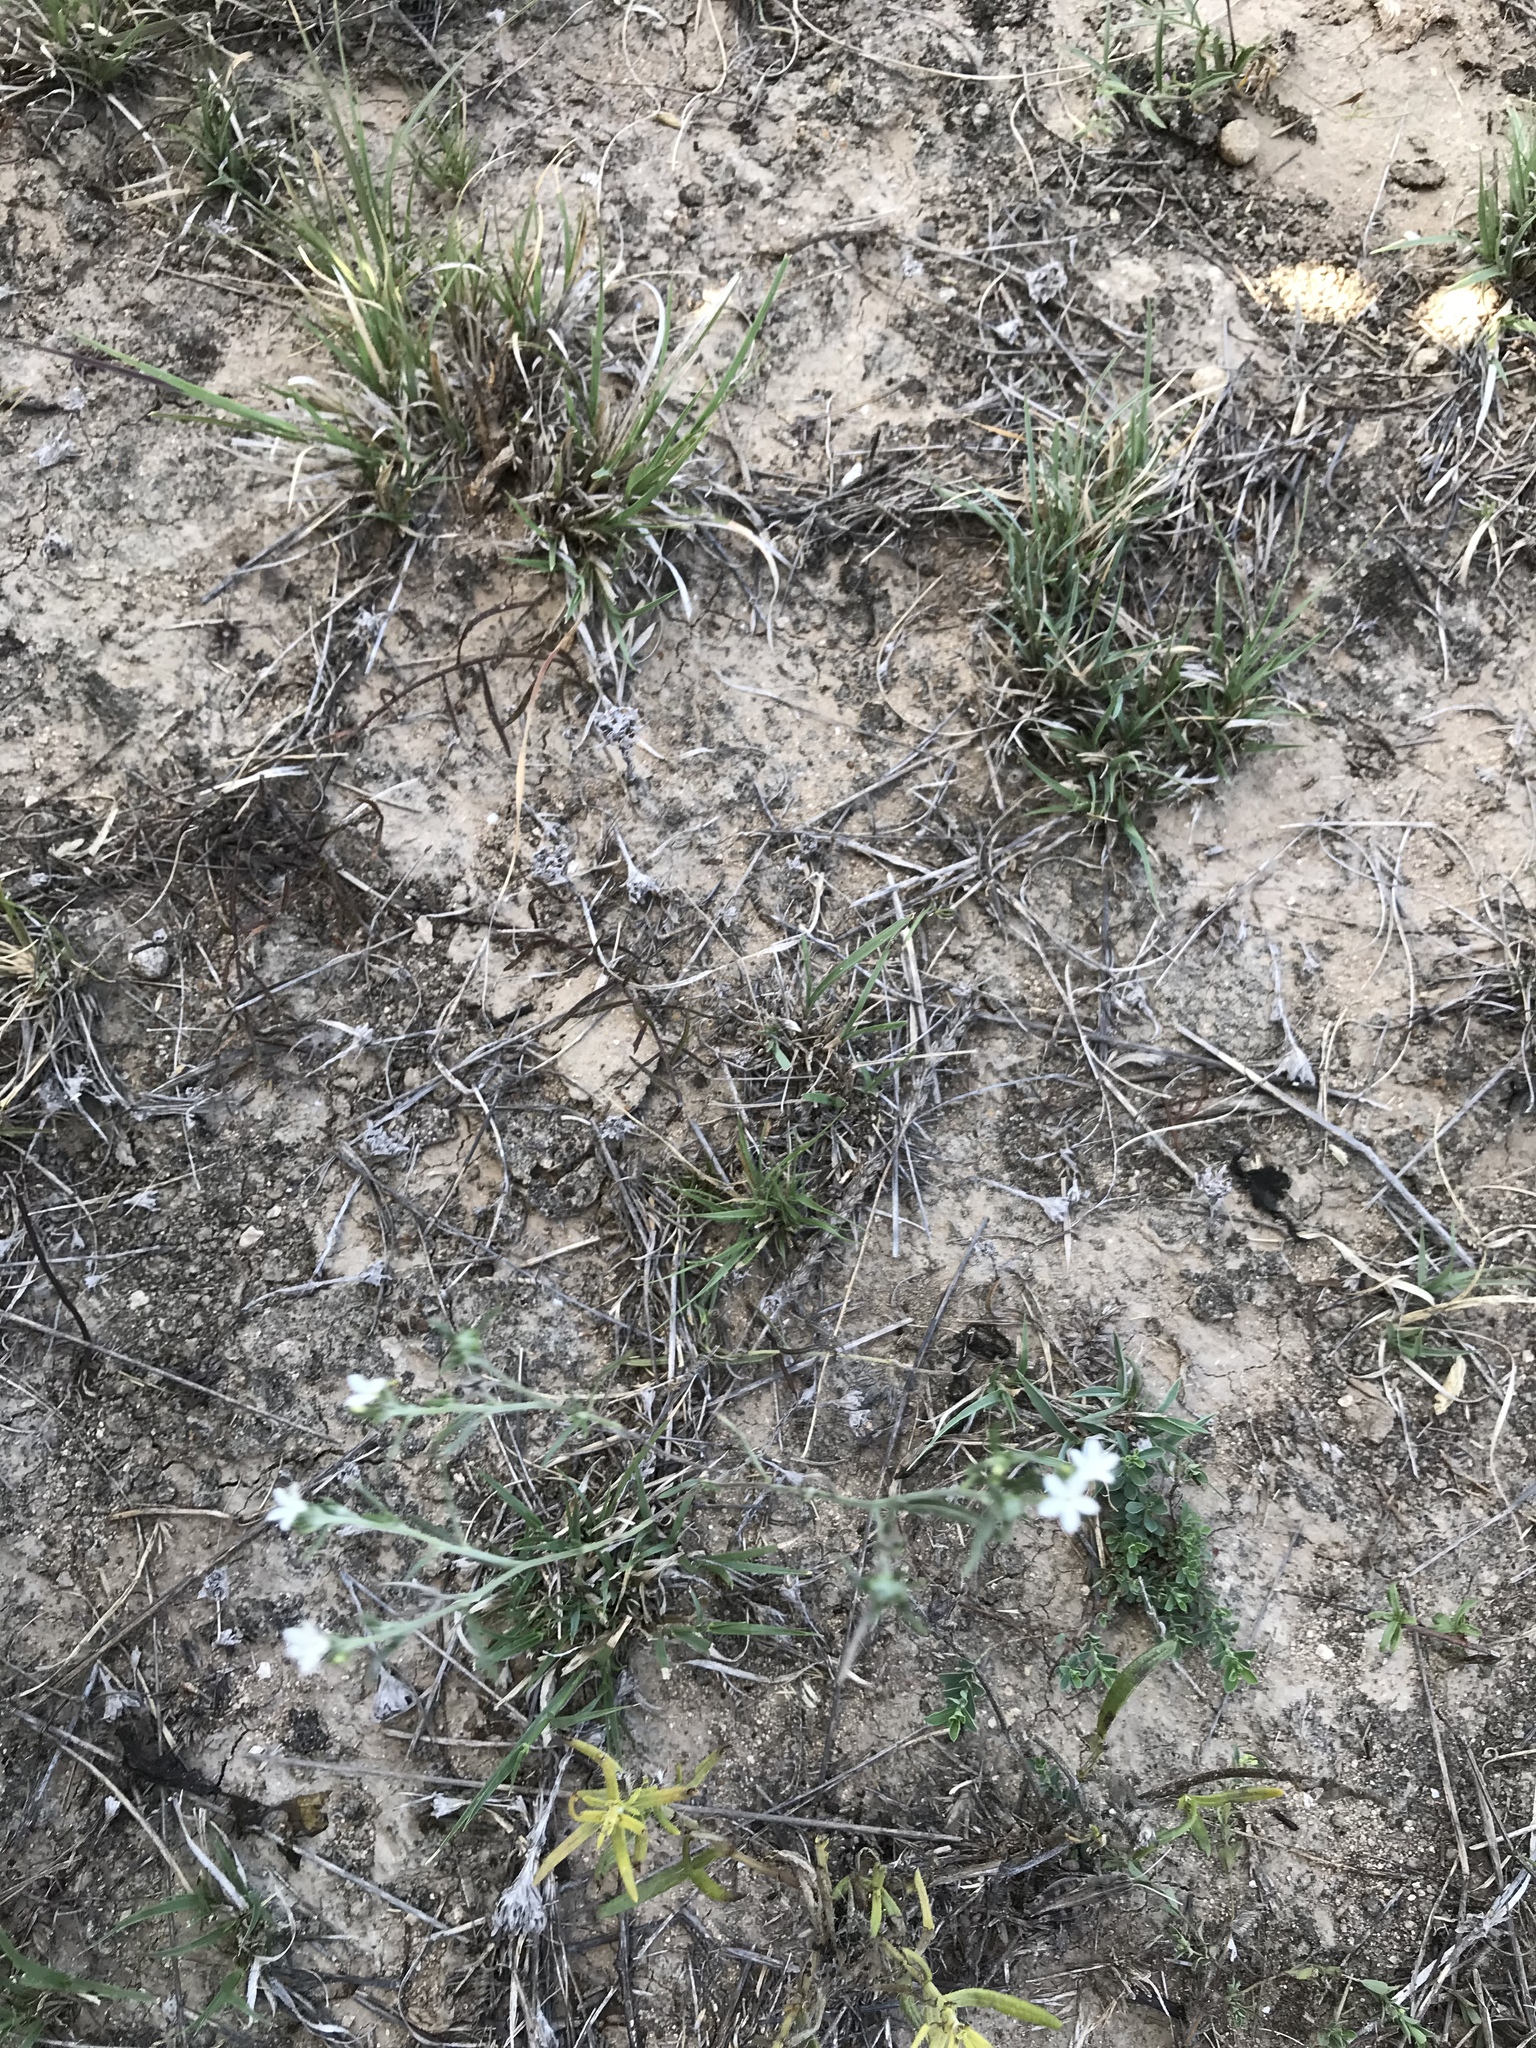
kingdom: Plantae
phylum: Tracheophyta
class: Magnoliopsida
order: Boraginales
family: Heliotropiaceae
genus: Euploca
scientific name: Euploca tenella
